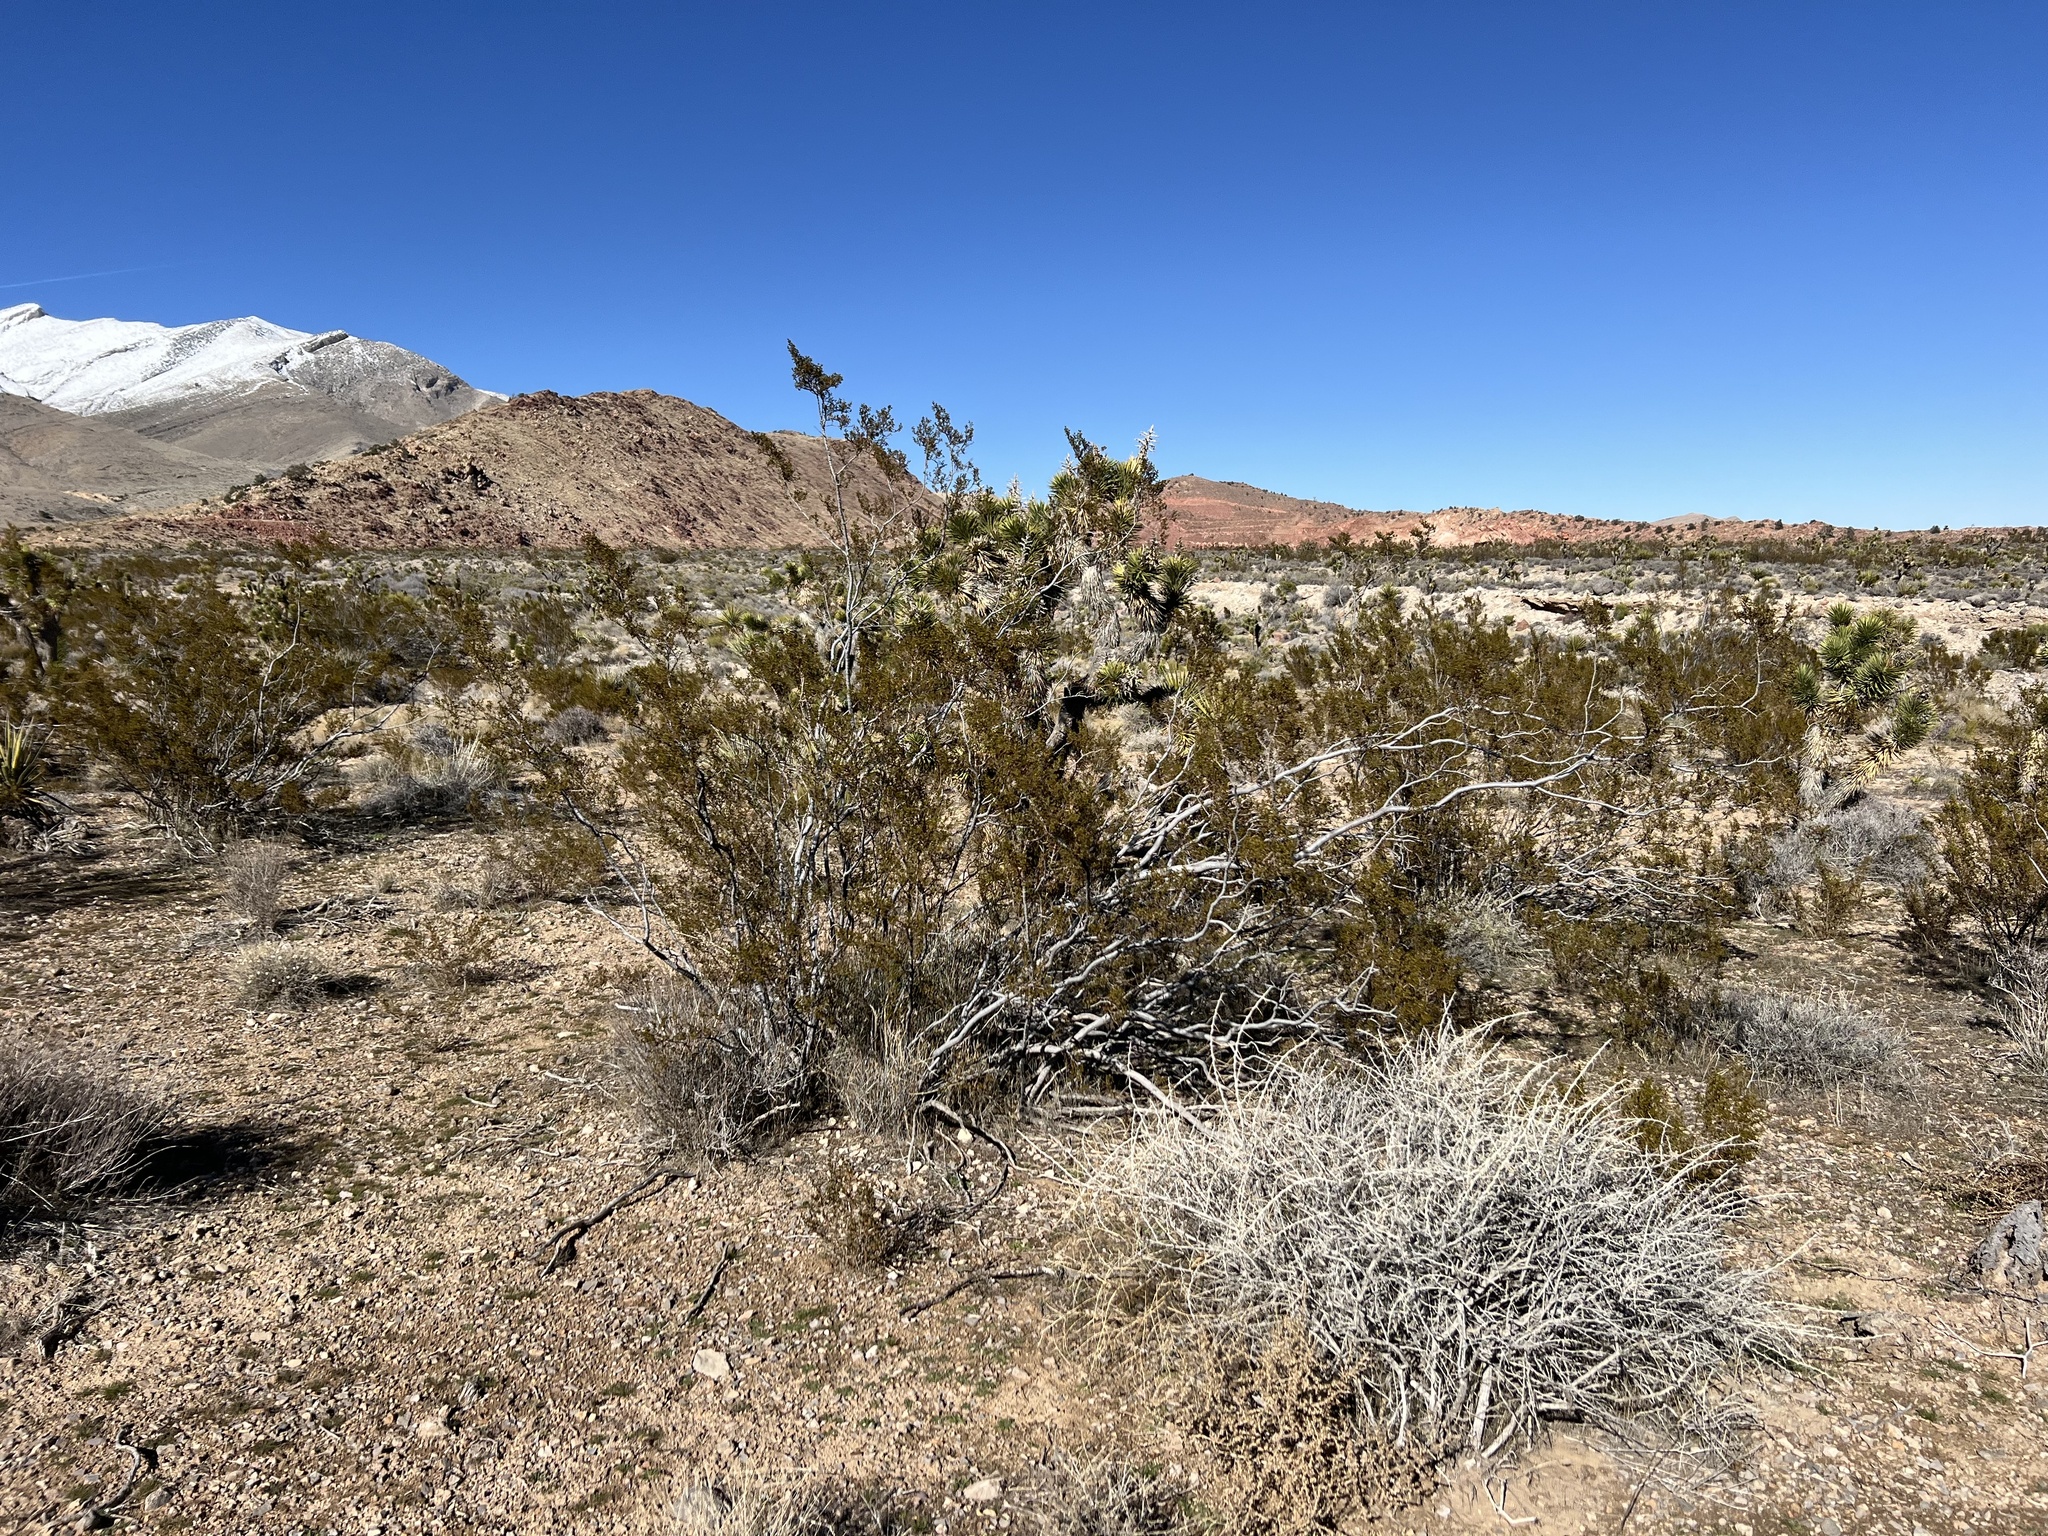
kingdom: Plantae
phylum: Tracheophyta
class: Magnoliopsida
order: Zygophyllales
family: Zygophyllaceae
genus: Larrea
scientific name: Larrea tridentata
